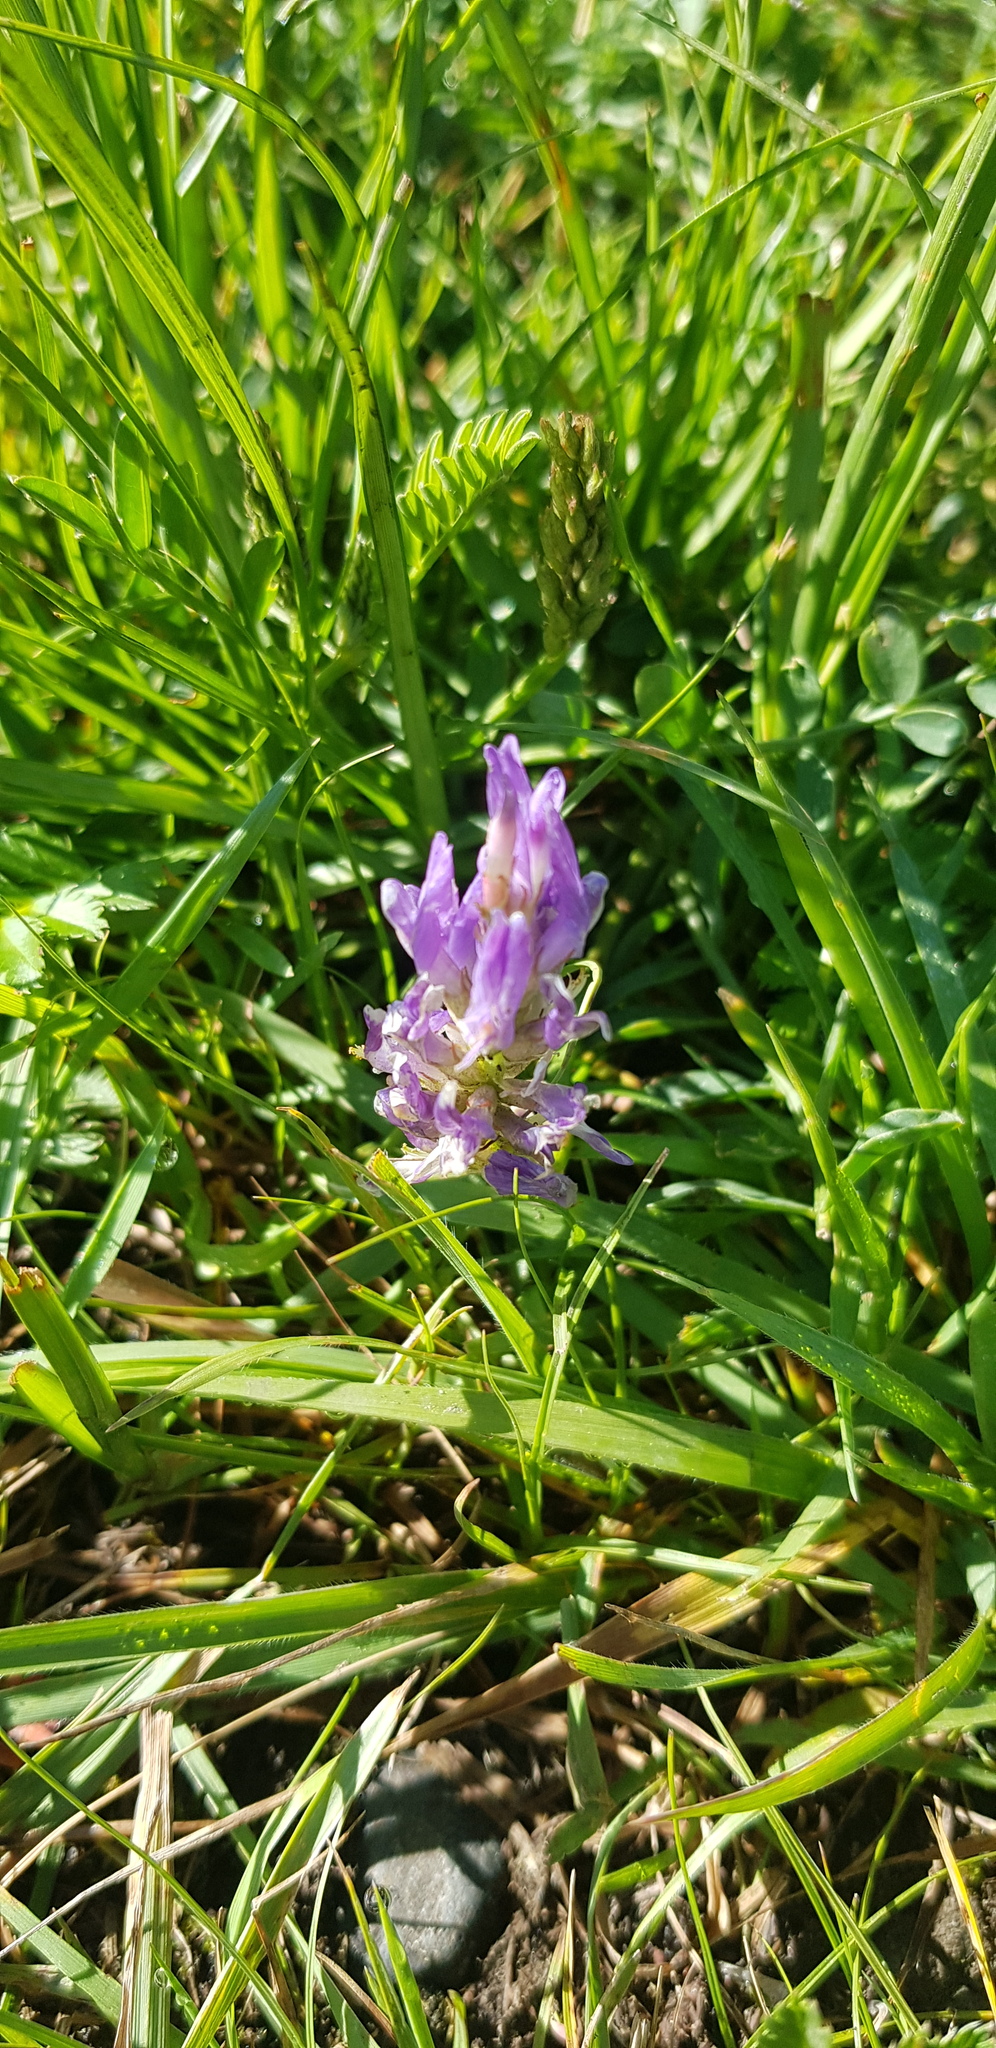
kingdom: Plantae
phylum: Tracheophyta
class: Magnoliopsida
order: Fabales
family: Fabaceae
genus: Astragalus
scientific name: Astragalus laxmannii
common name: Laxmann's milk-vetch
